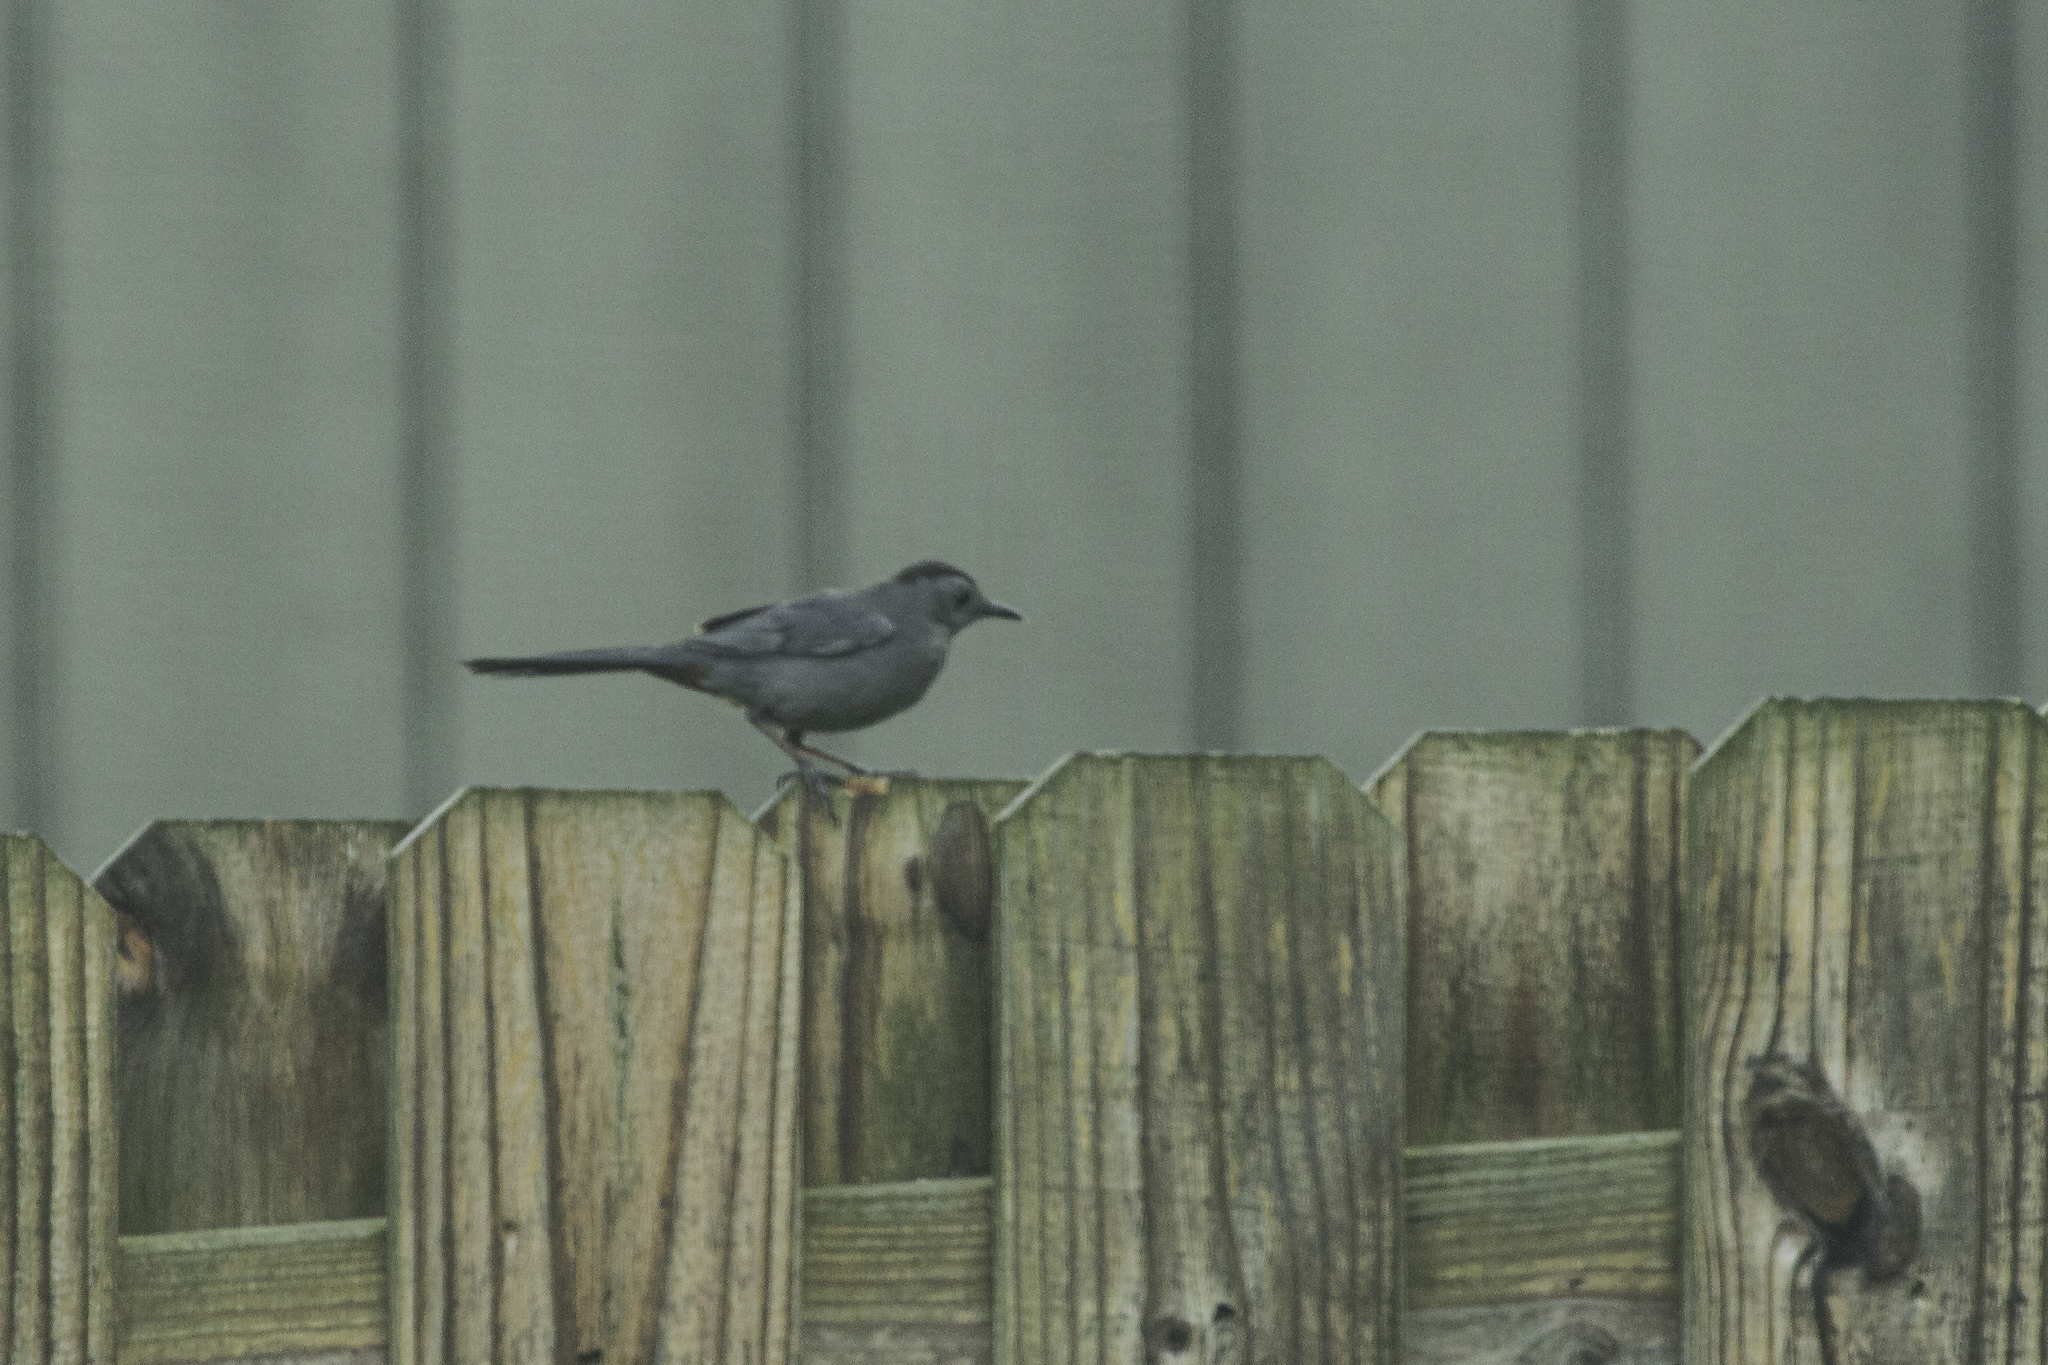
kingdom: Animalia
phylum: Chordata
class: Aves
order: Passeriformes
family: Mimidae
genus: Dumetella
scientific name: Dumetella carolinensis
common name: Gray catbird
